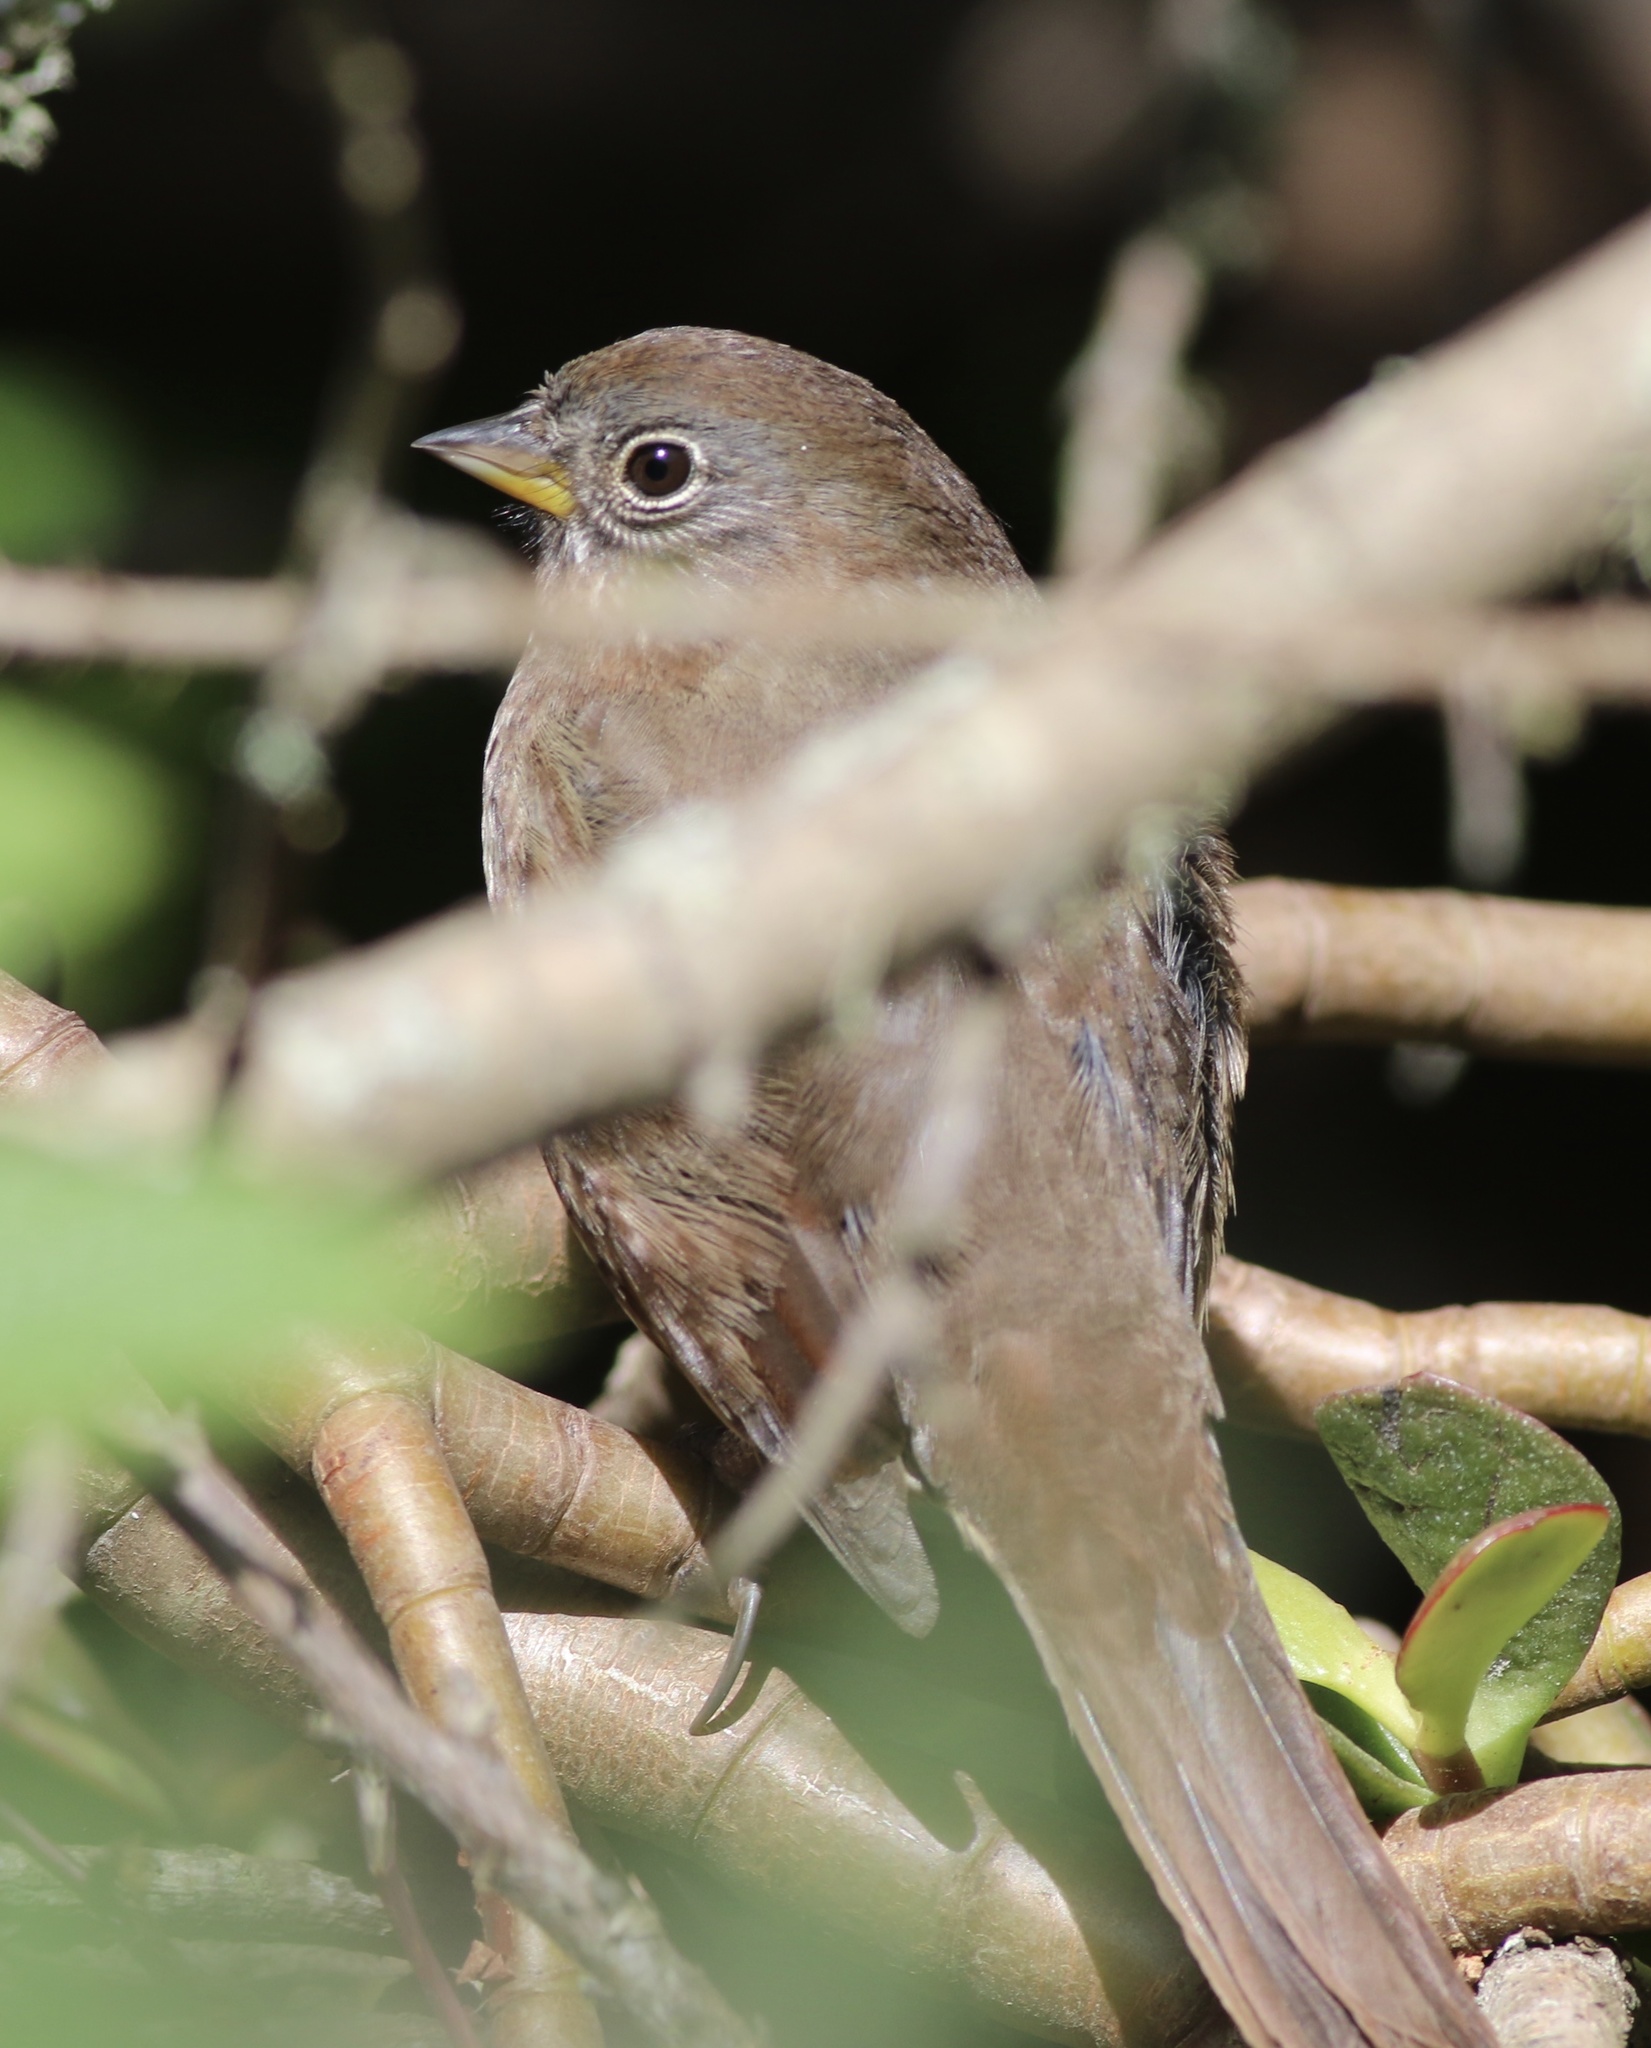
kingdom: Animalia
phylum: Chordata
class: Aves
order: Passeriformes
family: Passerellidae
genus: Passerella
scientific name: Passerella iliaca
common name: Fox sparrow
